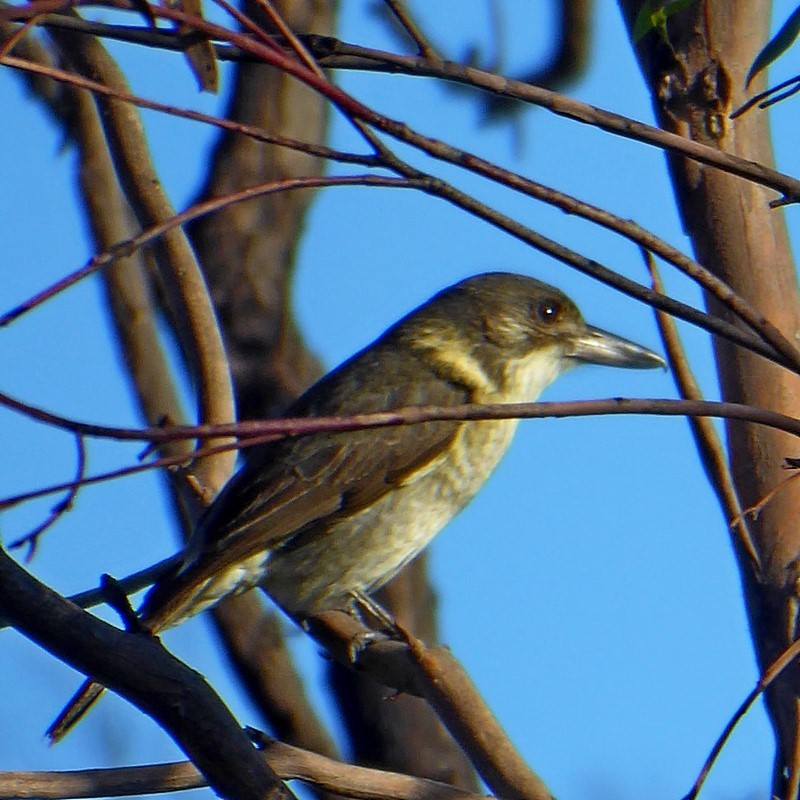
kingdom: Animalia
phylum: Chordata
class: Aves
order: Passeriformes
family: Cracticidae
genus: Cracticus
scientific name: Cracticus torquatus
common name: Grey butcherbird
